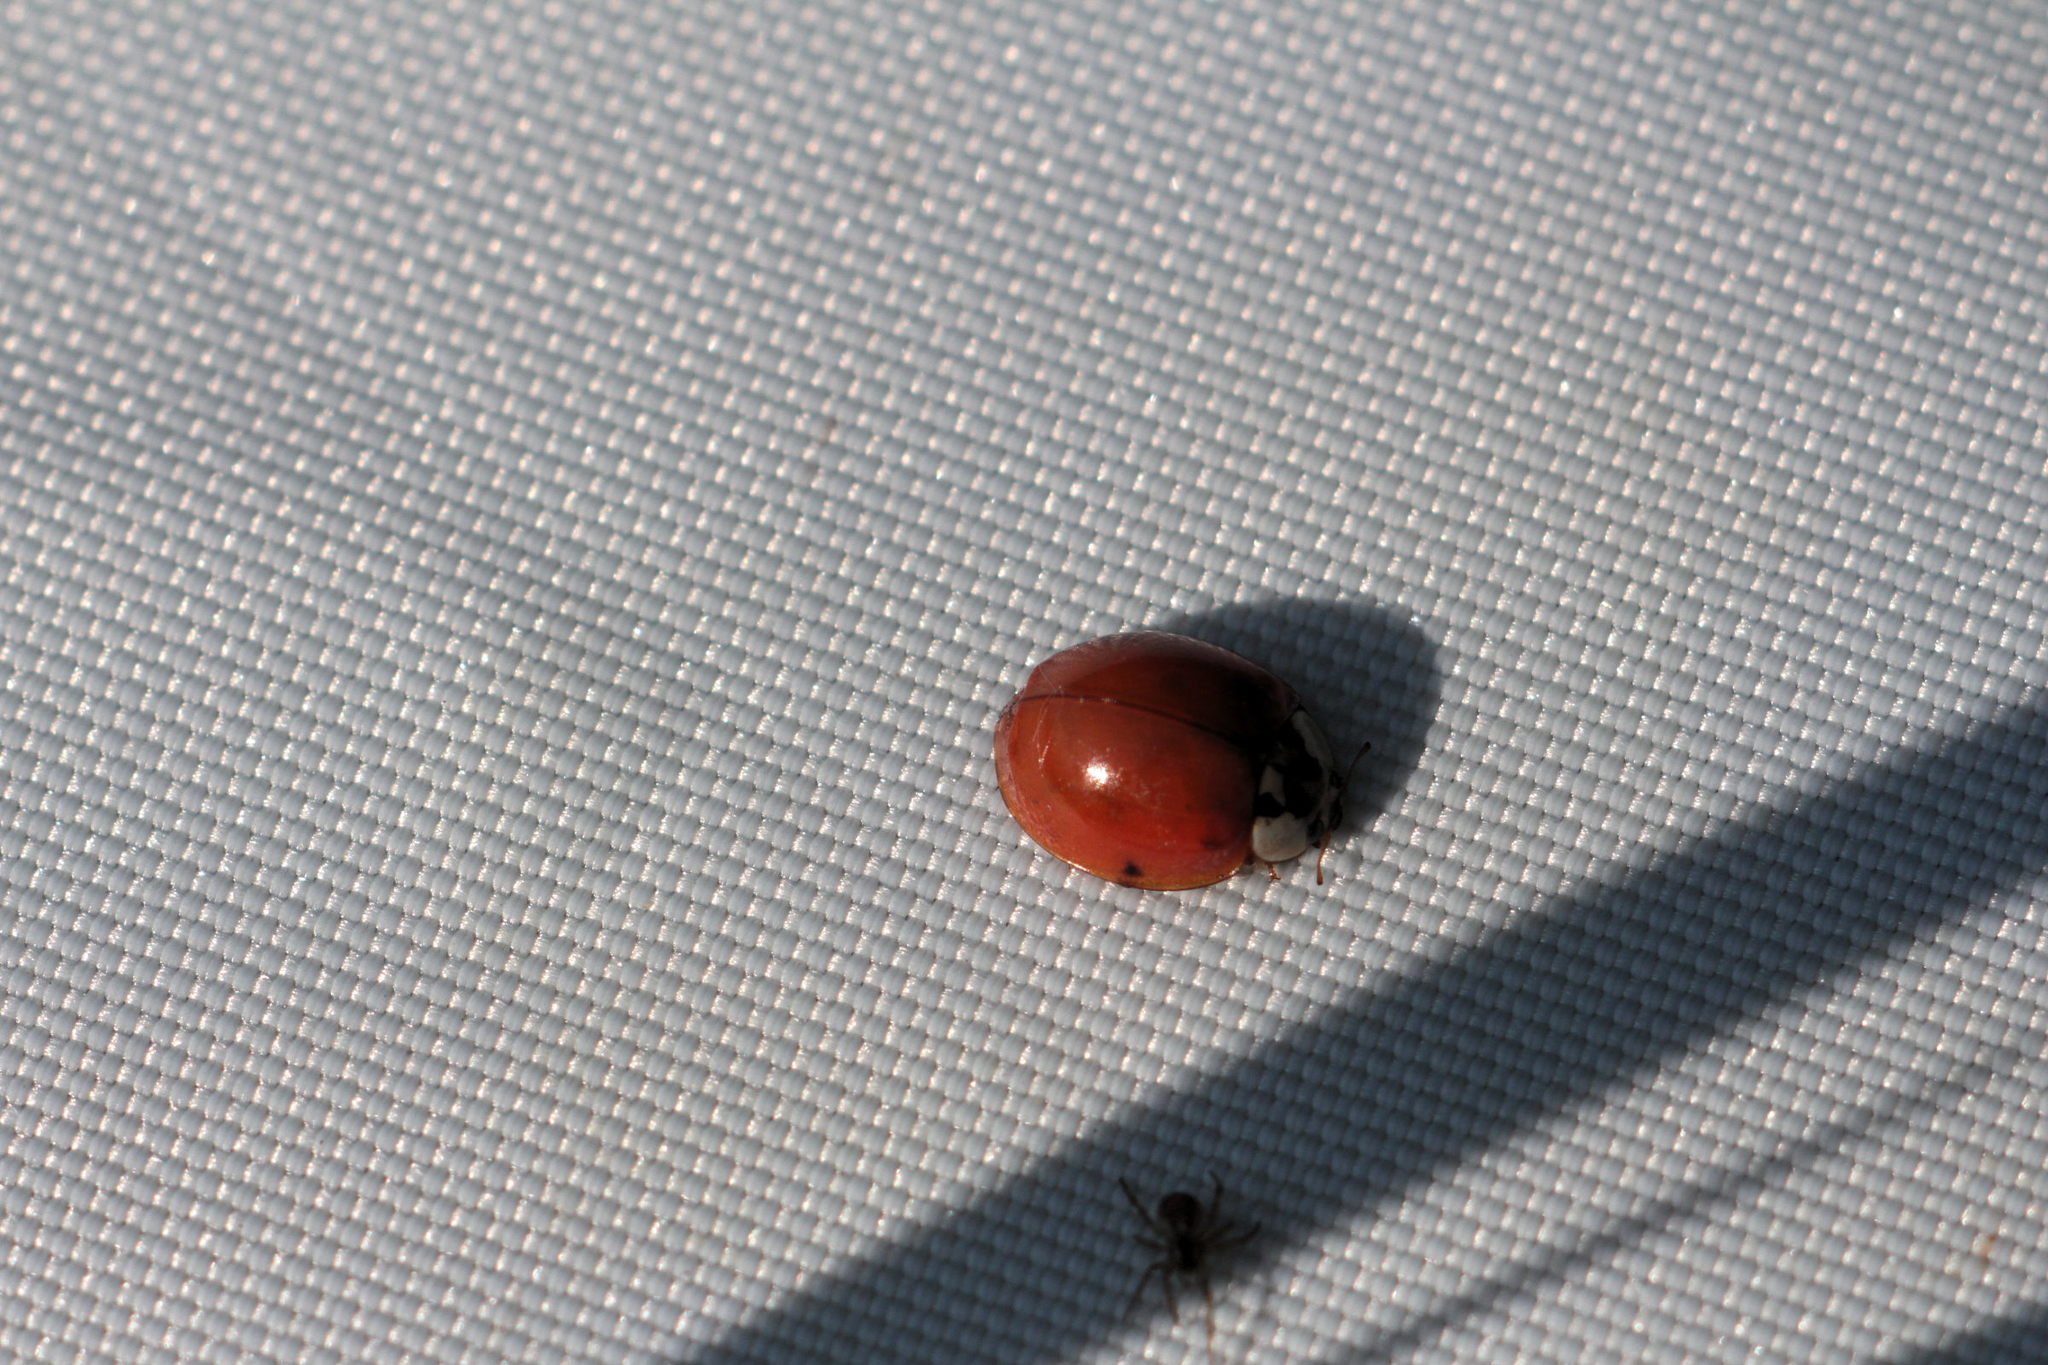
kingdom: Animalia
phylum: Arthropoda
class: Insecta
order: Coleoptera
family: Coccinellidae
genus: Harmonia
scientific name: Harmonia axyridis
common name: Harlequin ladybird
